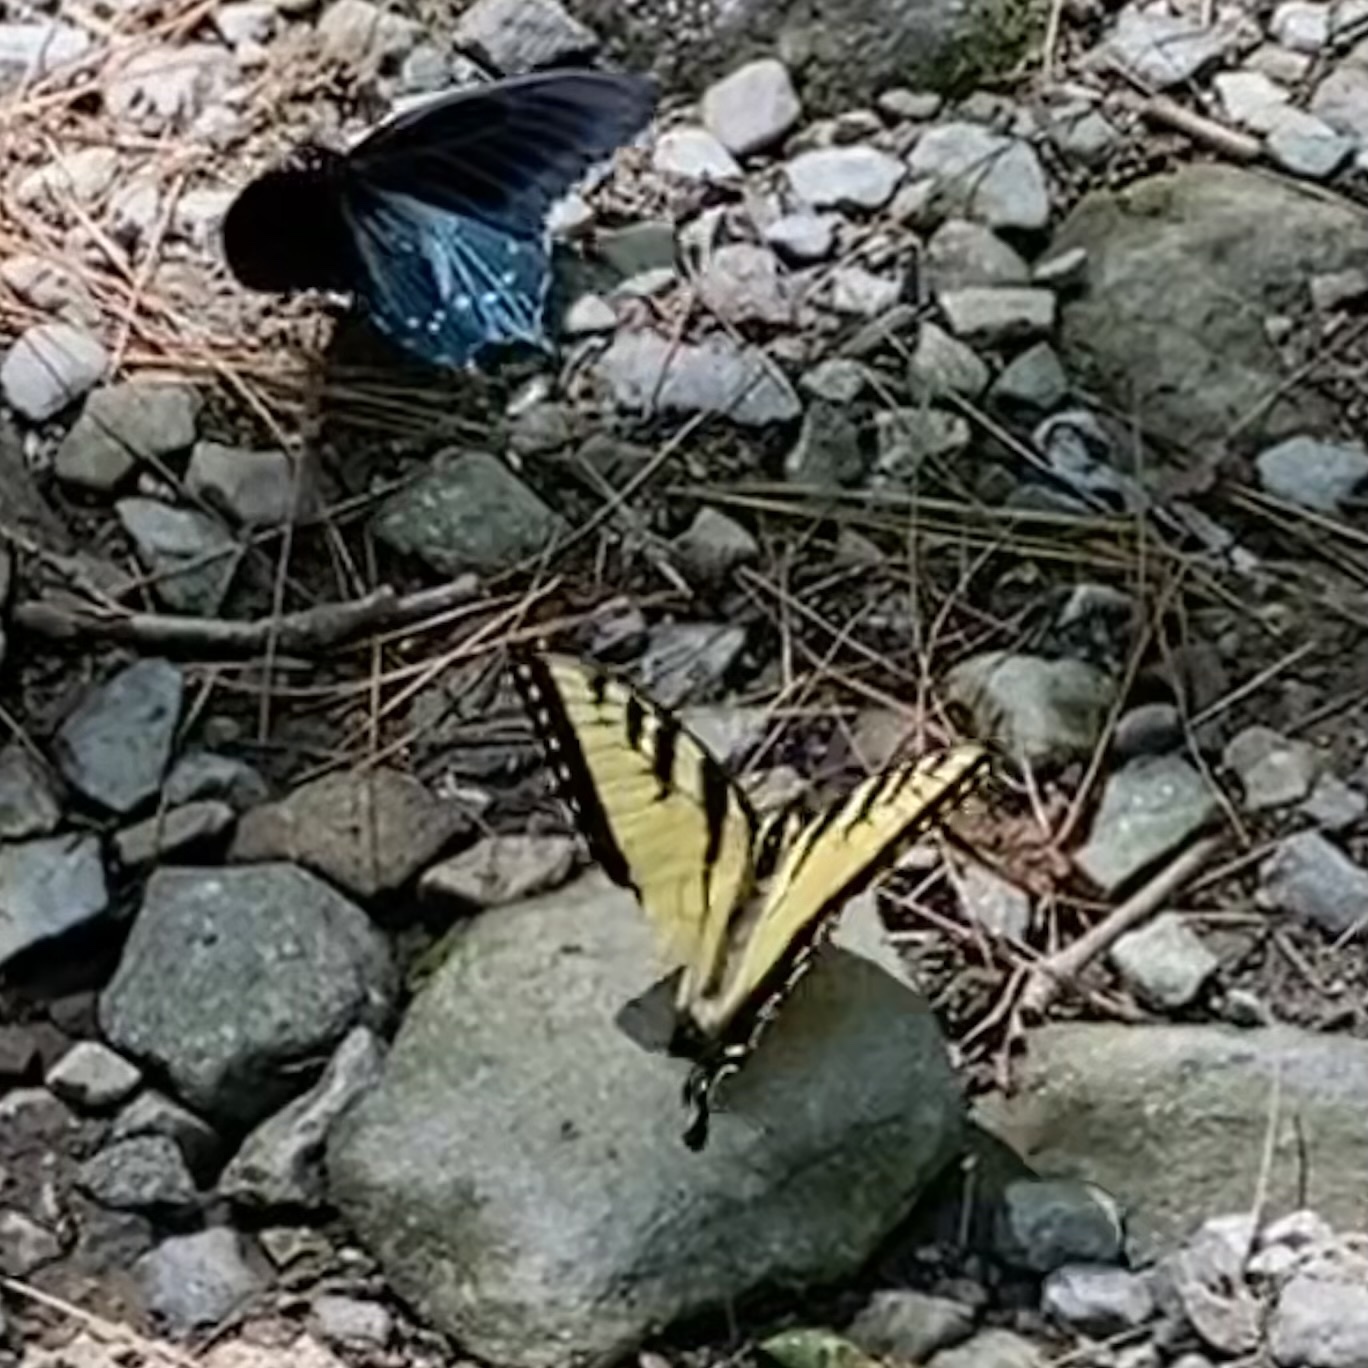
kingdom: Animalia
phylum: Arthropoda
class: Insecta
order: Lepidoptera
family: Papilionidae
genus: Papilio
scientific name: Papilio glaucus
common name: Tiger swallowtail
